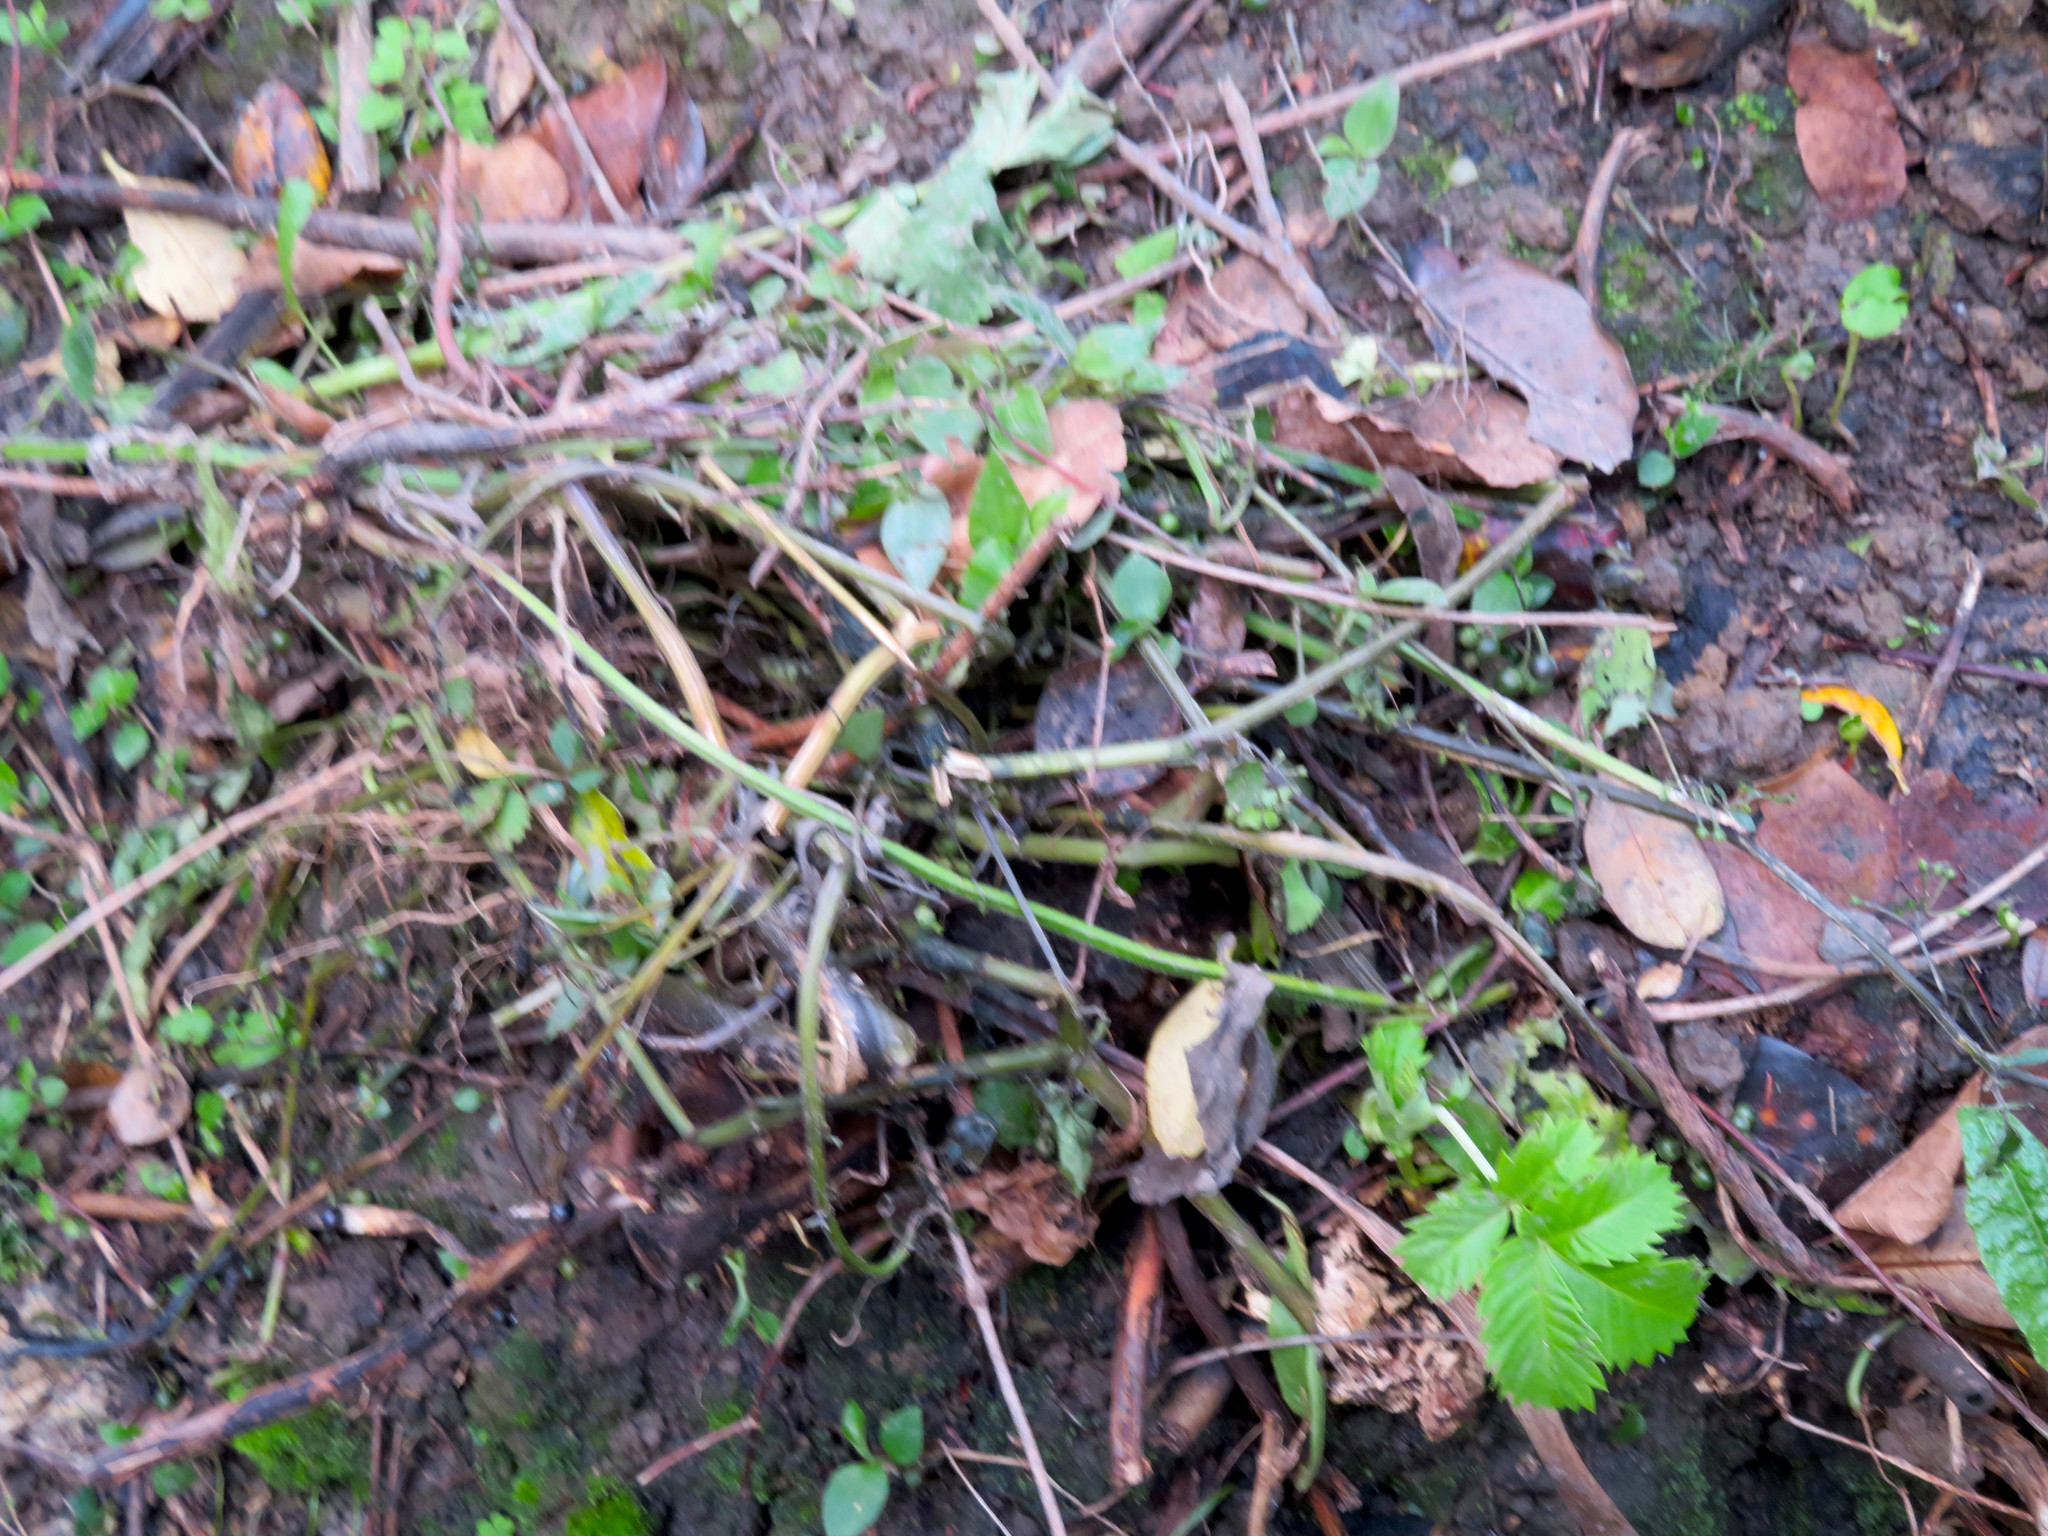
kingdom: Plantae
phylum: Tracheophyta
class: Magnoliopsida
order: Geraniales
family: Melianthaceae
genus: Melianthus
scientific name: Melianthus major
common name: Honey-flower
